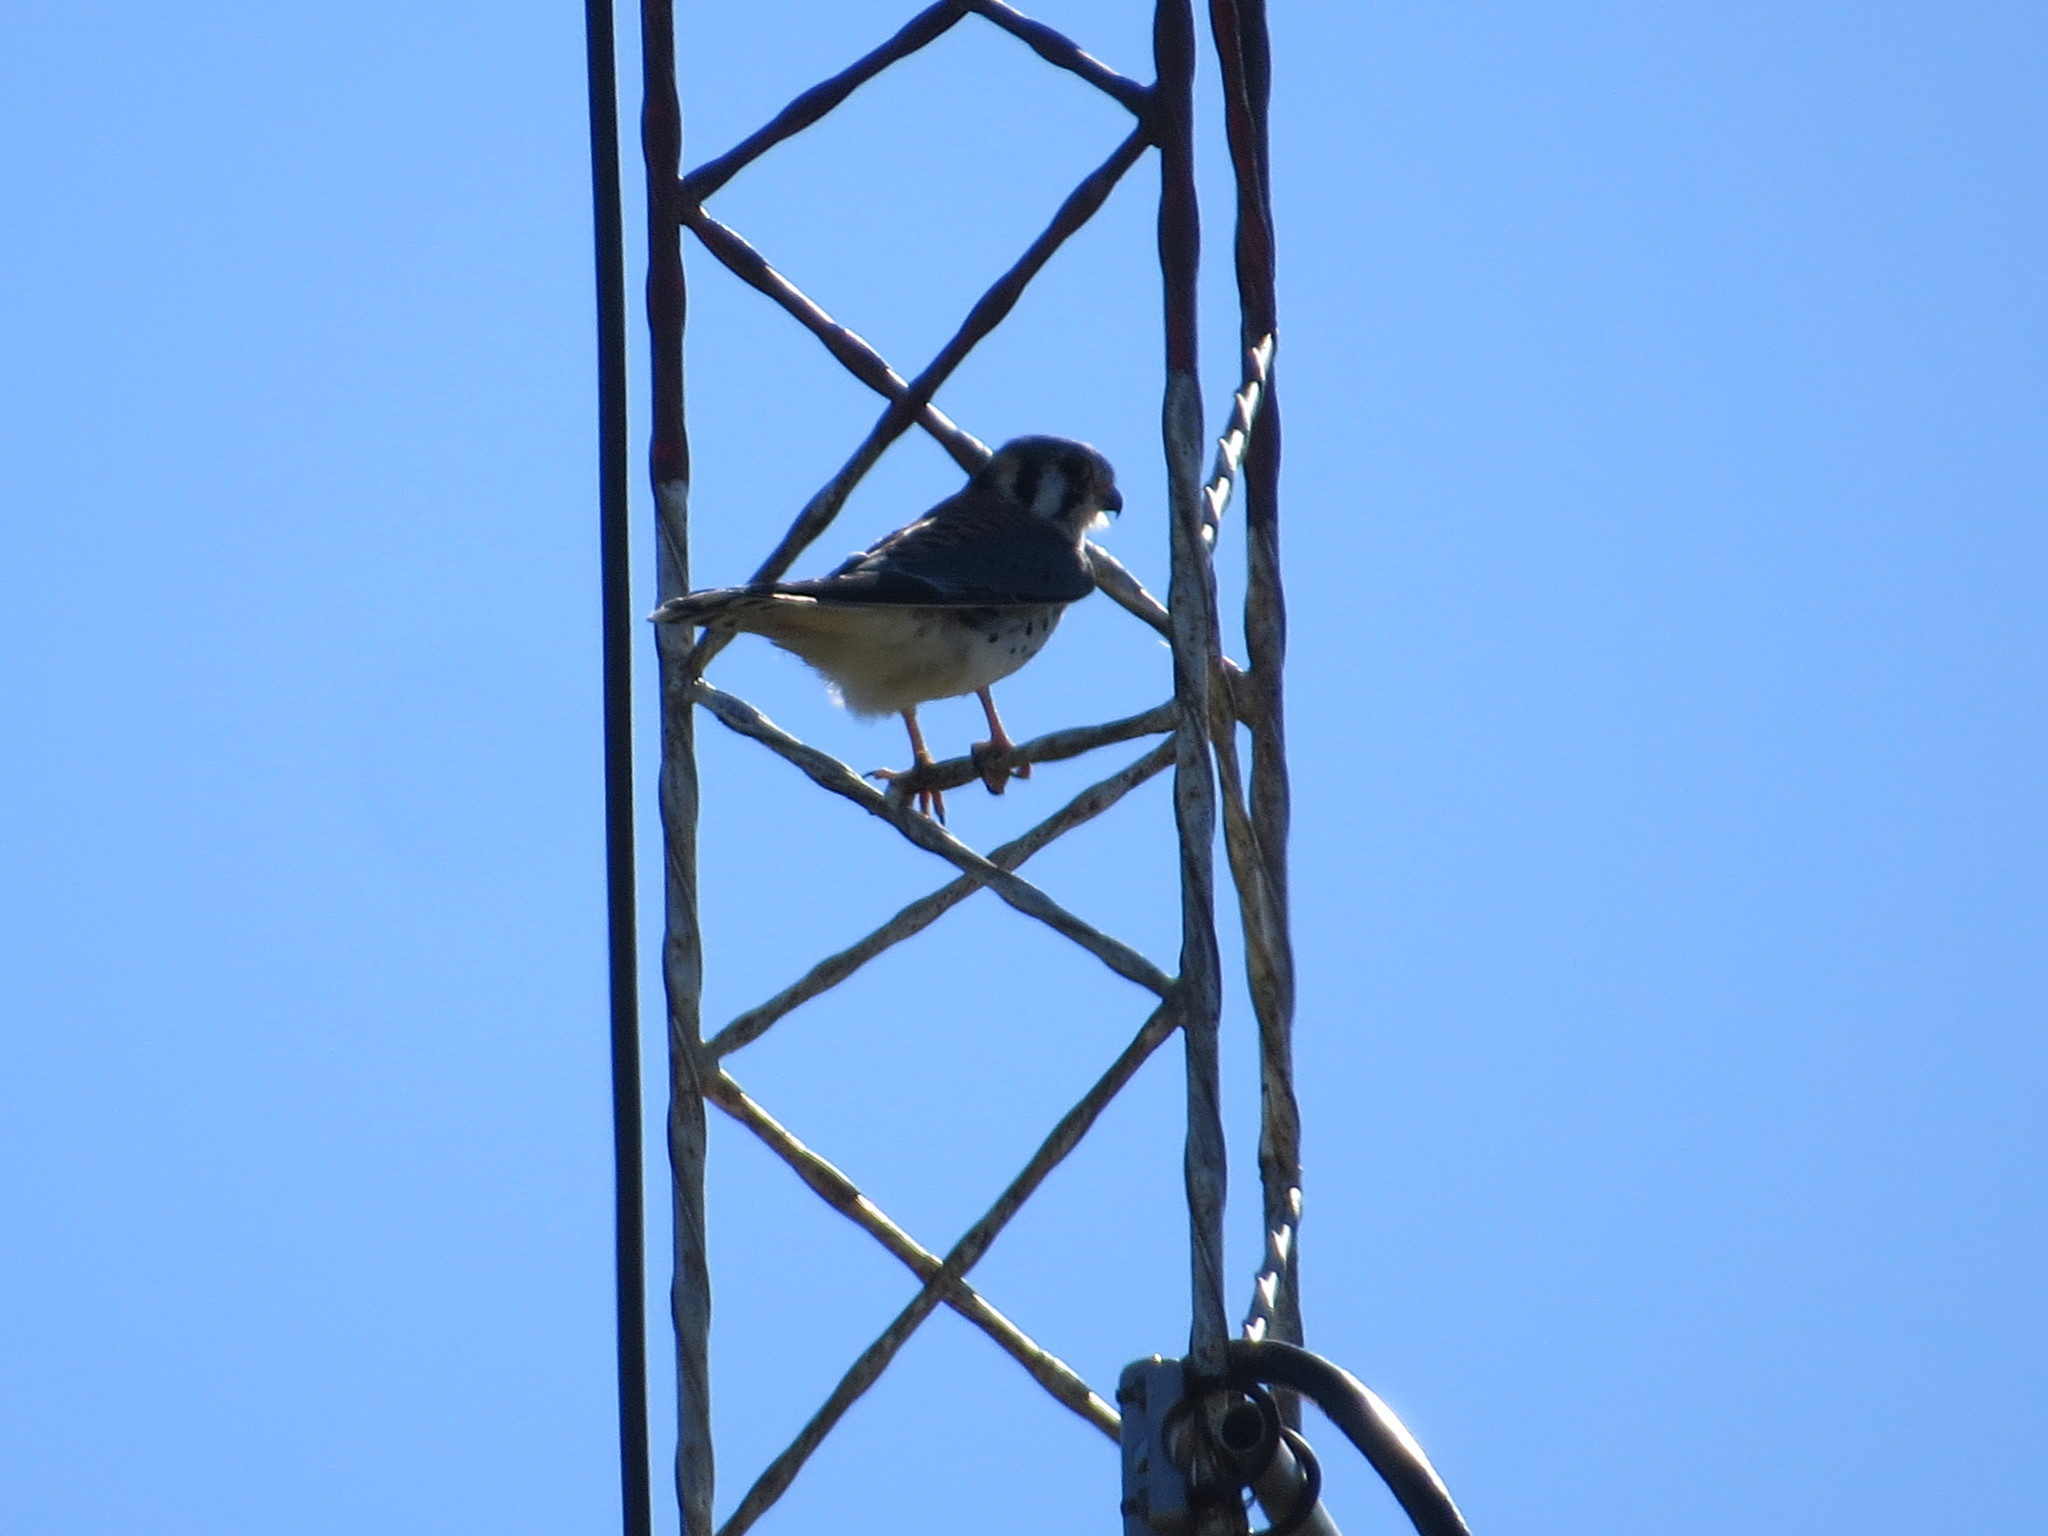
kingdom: Animalia
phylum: Chordata
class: Aves
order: Falconiformes
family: Falconidae
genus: Falco
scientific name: Falco sparverius
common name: American kestrel
